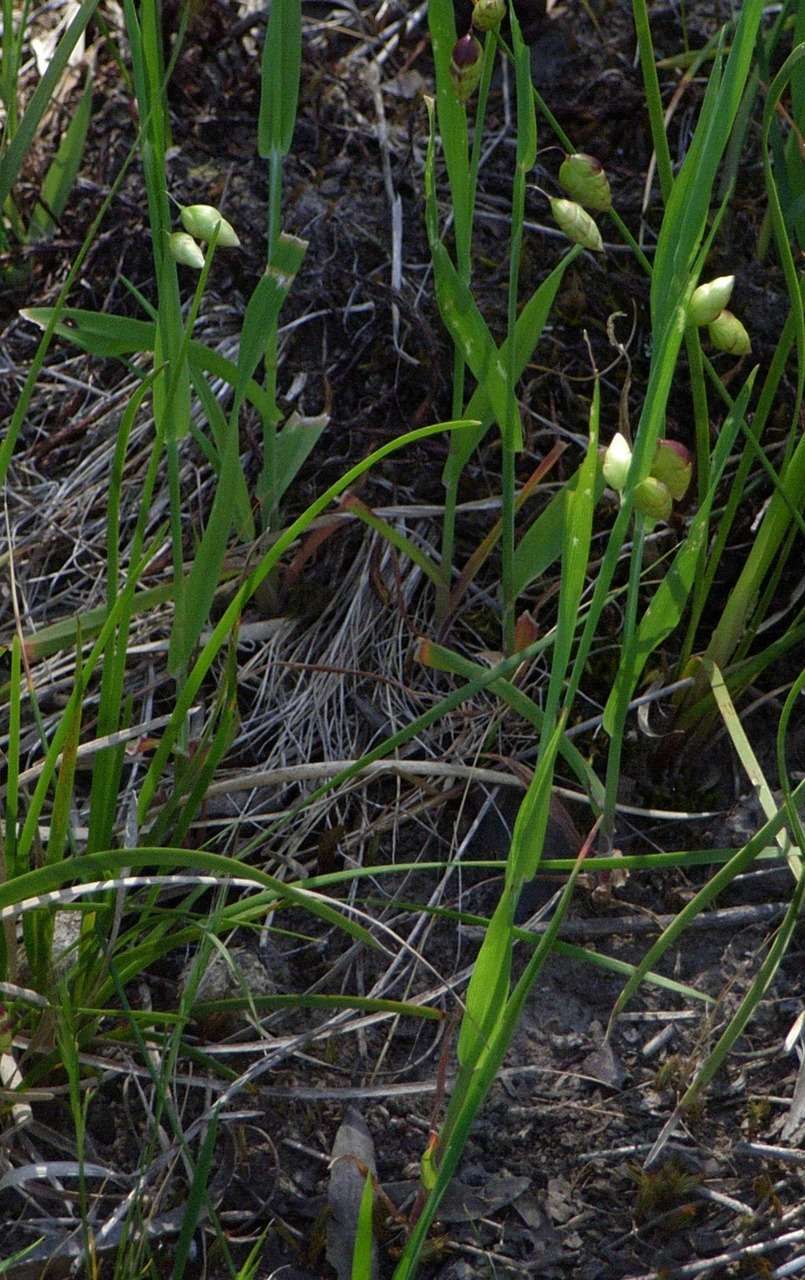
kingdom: Plantae
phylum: Tracheophyta
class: Liliopsida
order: Poales
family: Poaceae
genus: Briza
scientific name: Briza maxima
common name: Big quakinggrass
